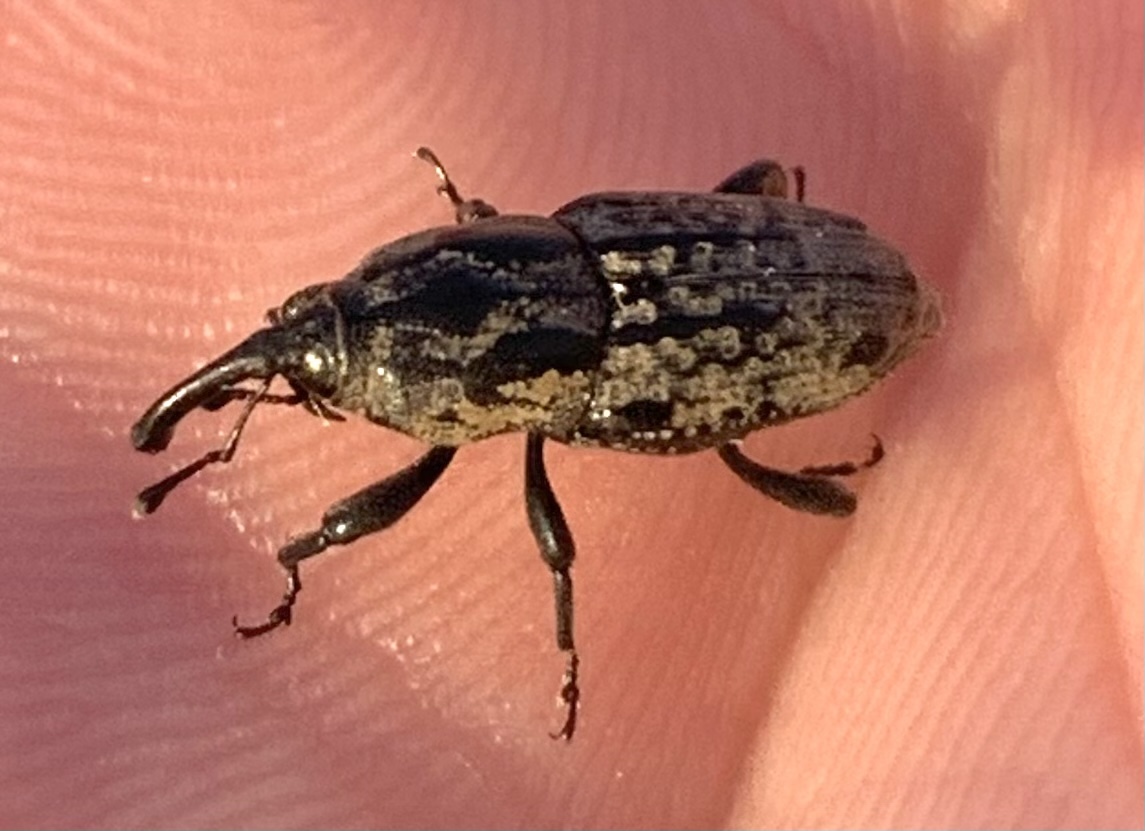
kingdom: Animalia
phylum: Arthropoda
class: Insecta
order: Coleoptera
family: Dryophthoridae
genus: Sphenophorus
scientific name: Sphenophorus cariosus
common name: Weevil
